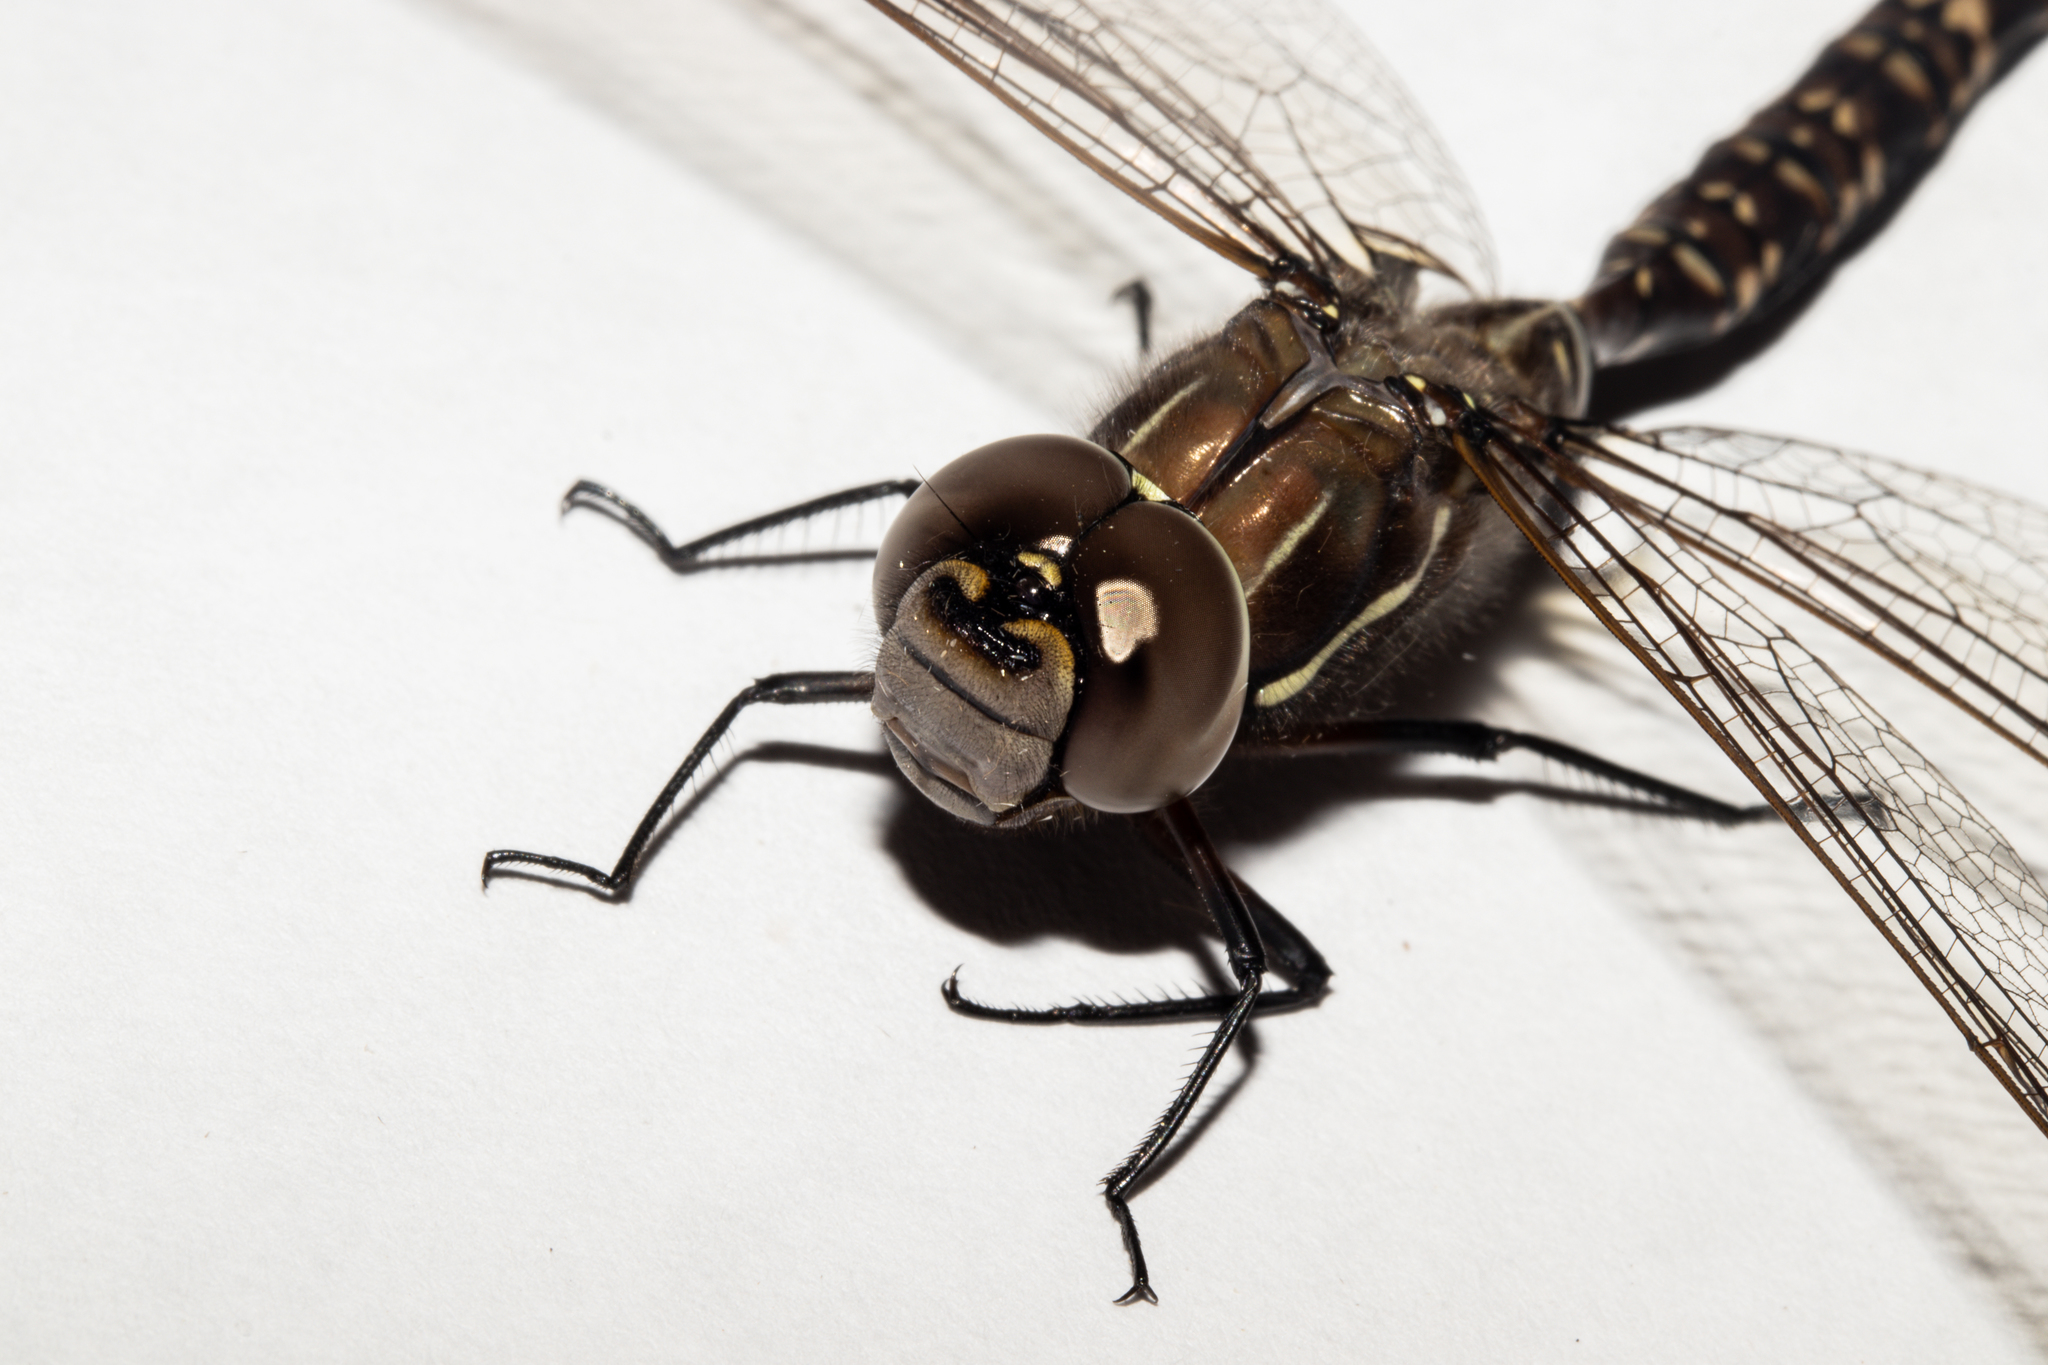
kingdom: Animalia
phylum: Arthropoda
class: Insecta
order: Odonata
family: Aeshnidae
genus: Aeshna
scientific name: Aeshna brevistyla
